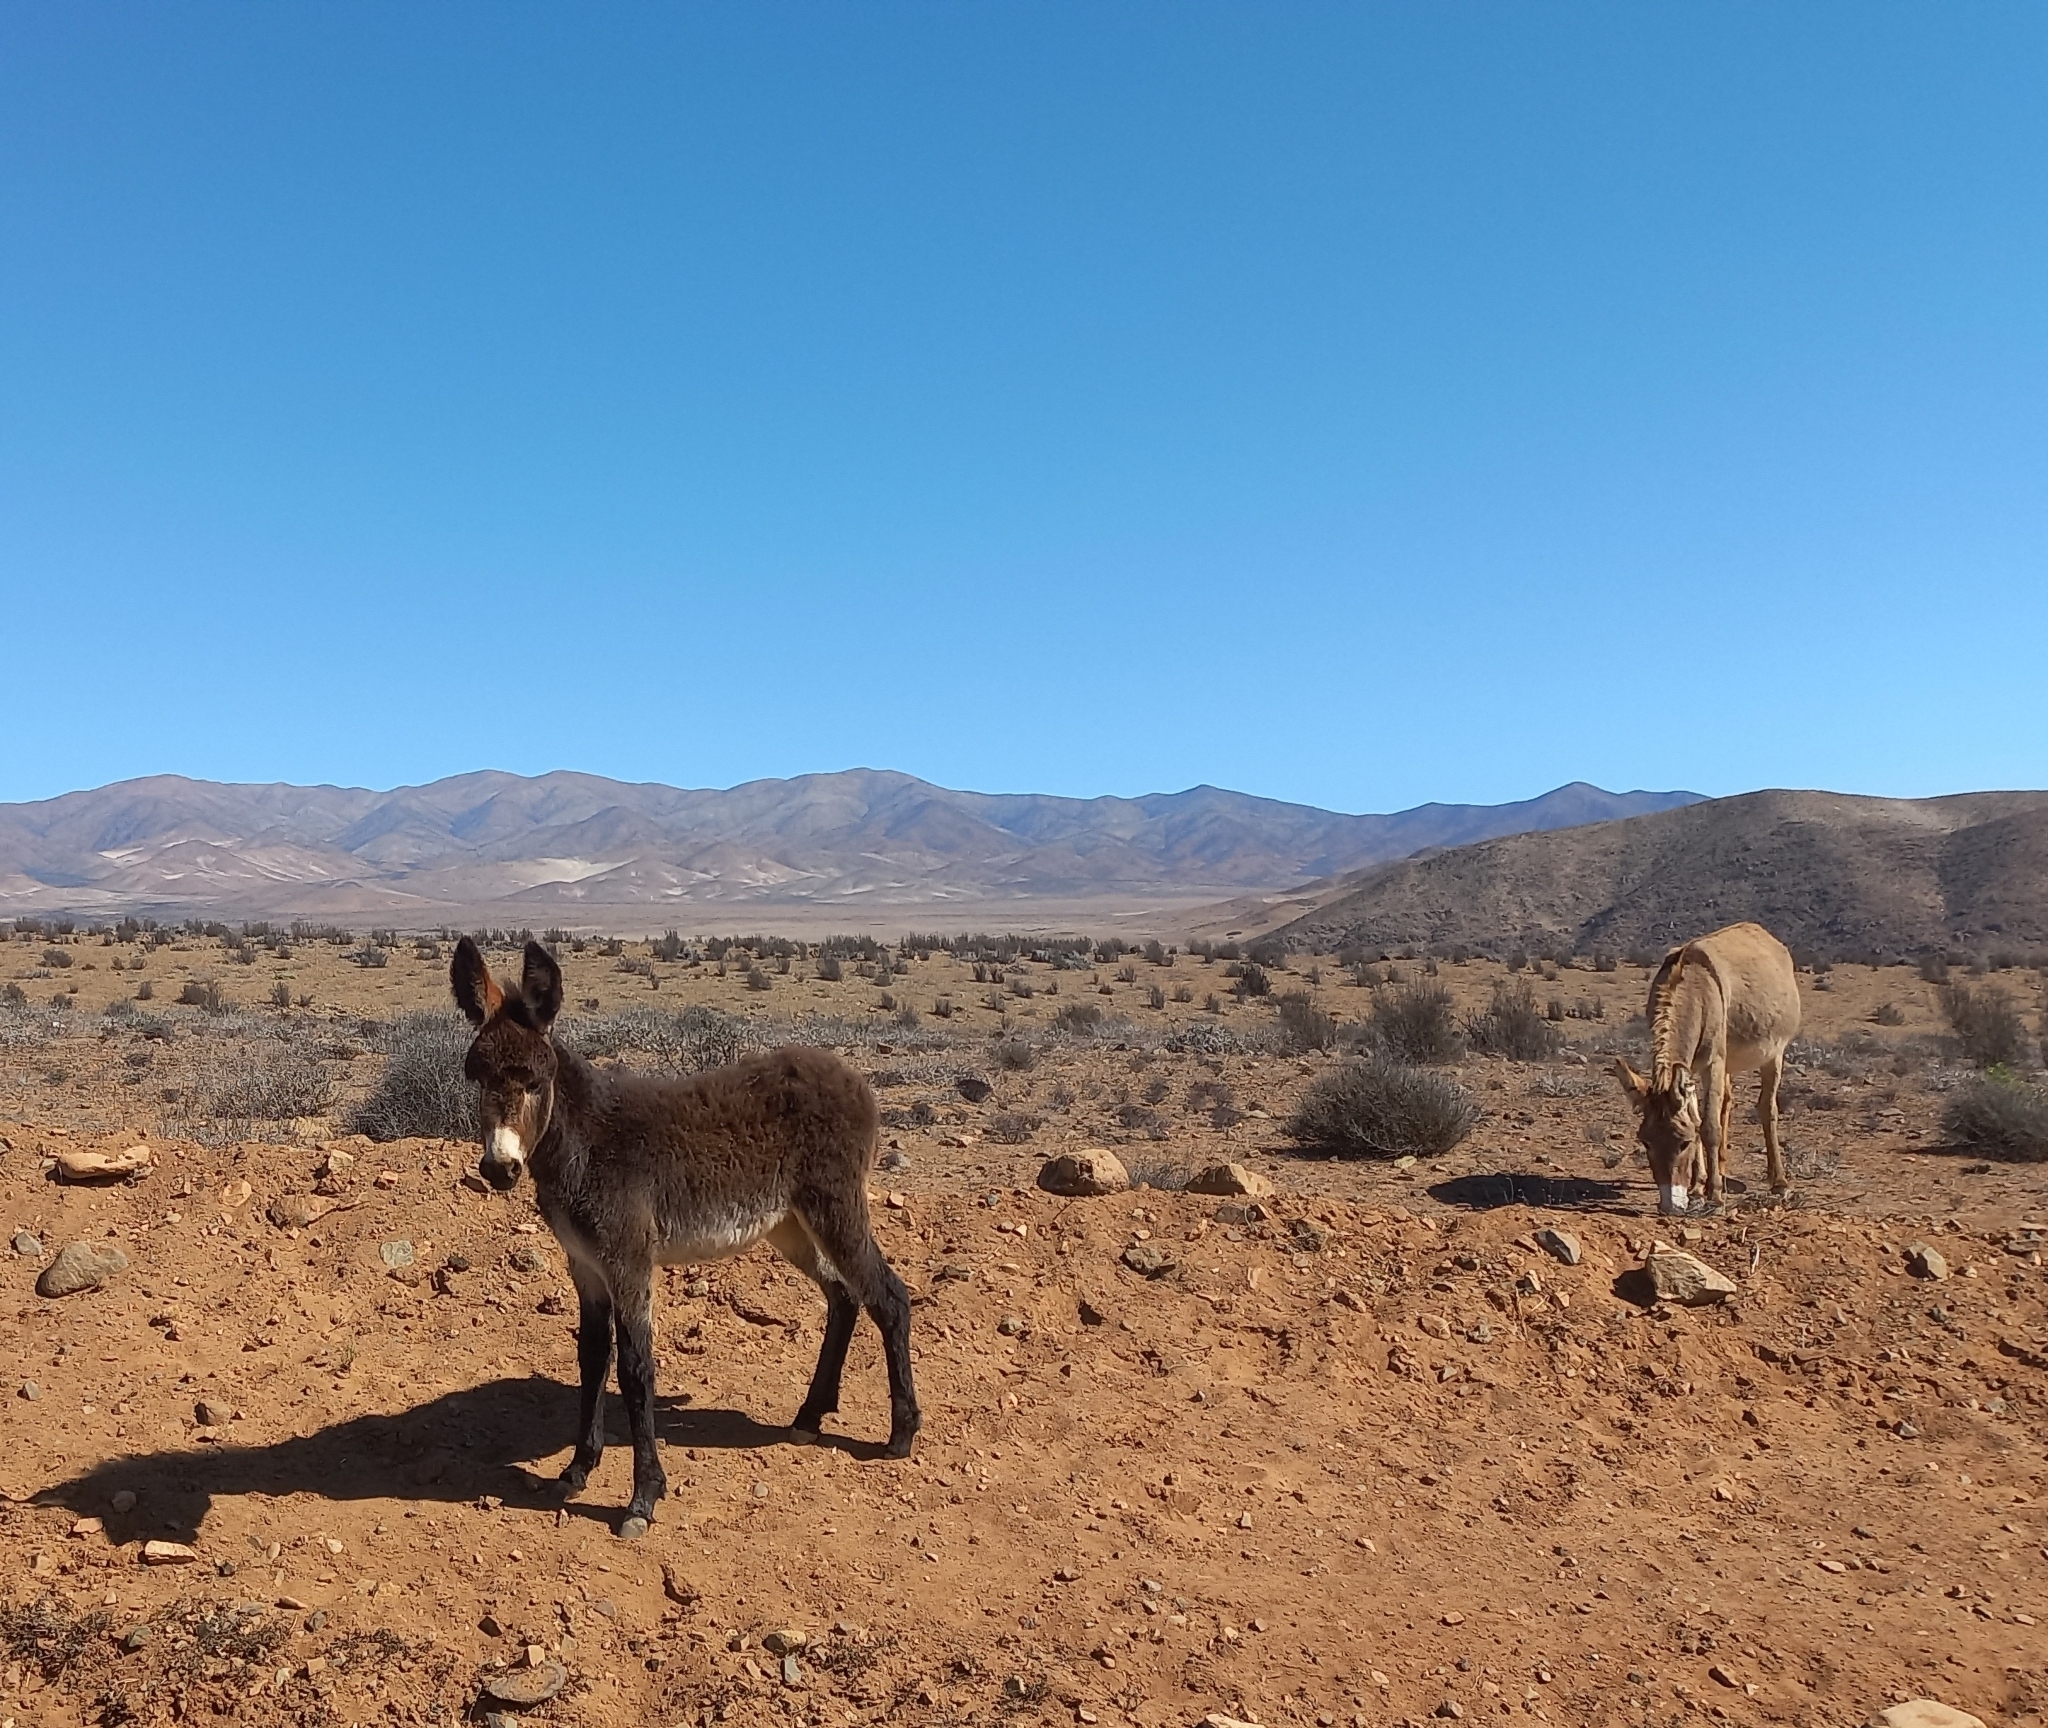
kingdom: Animalia
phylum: Chordata
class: Mammalia
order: Perissodactyla
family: Equidae
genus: Equus
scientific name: Equus asinus
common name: Ass
